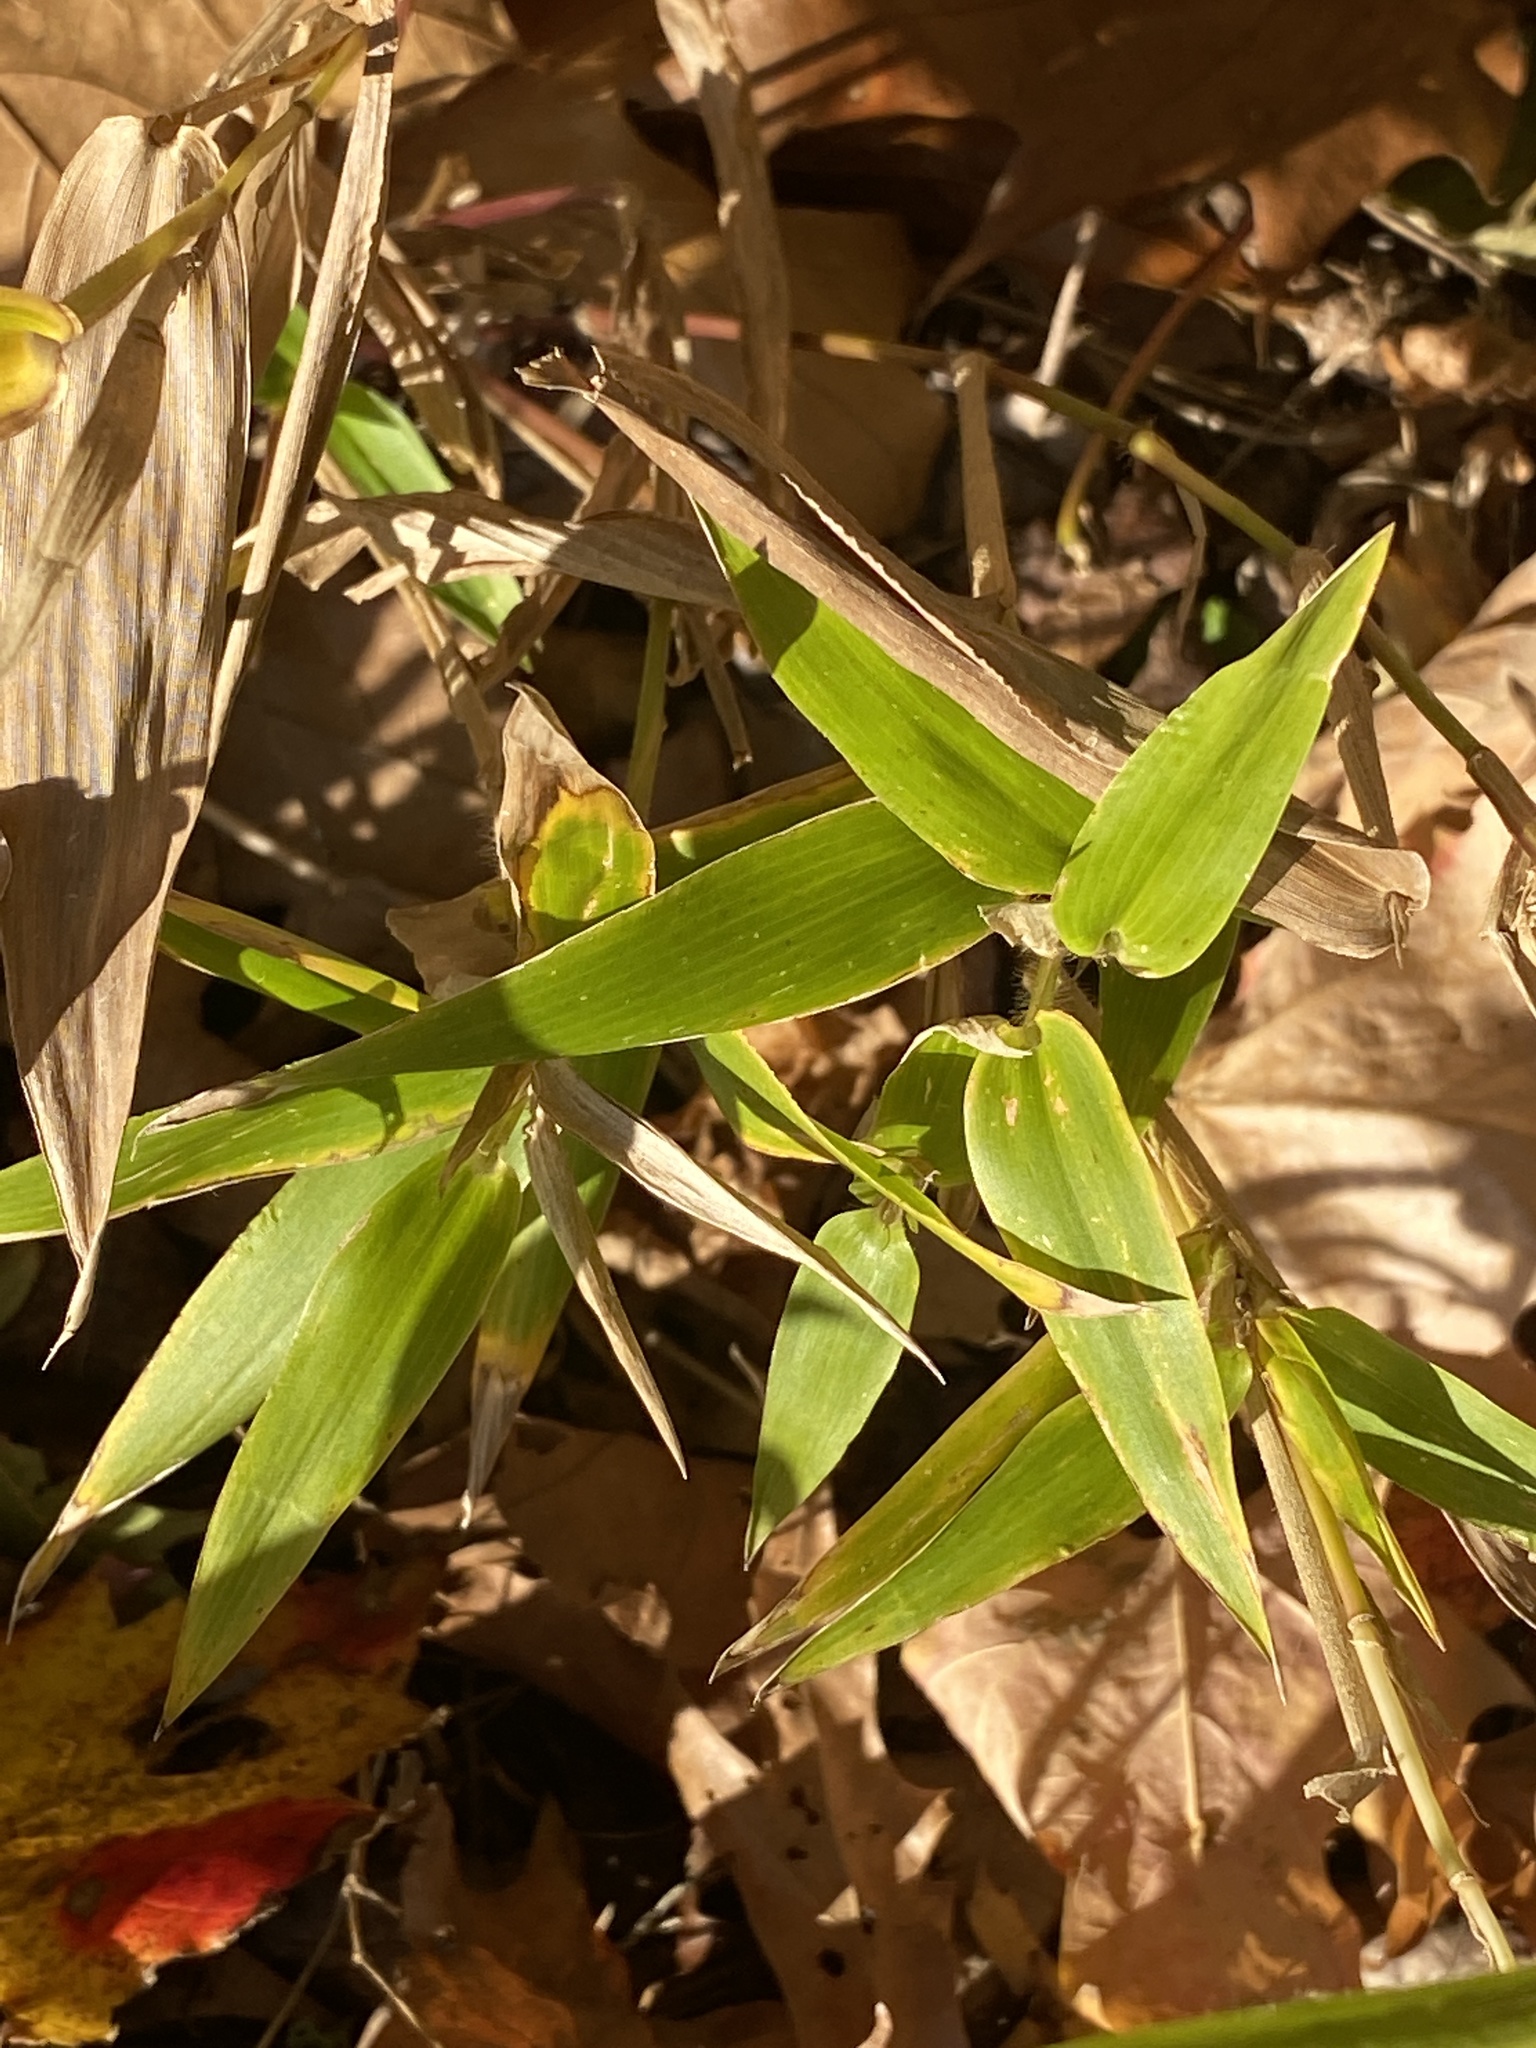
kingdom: Plantae
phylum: Tracheophyta
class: Liliopsida
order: Poales
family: Poaceae
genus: Dichanthelium
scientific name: Dichanthelium clandestinum
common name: Deer-tongue grass
